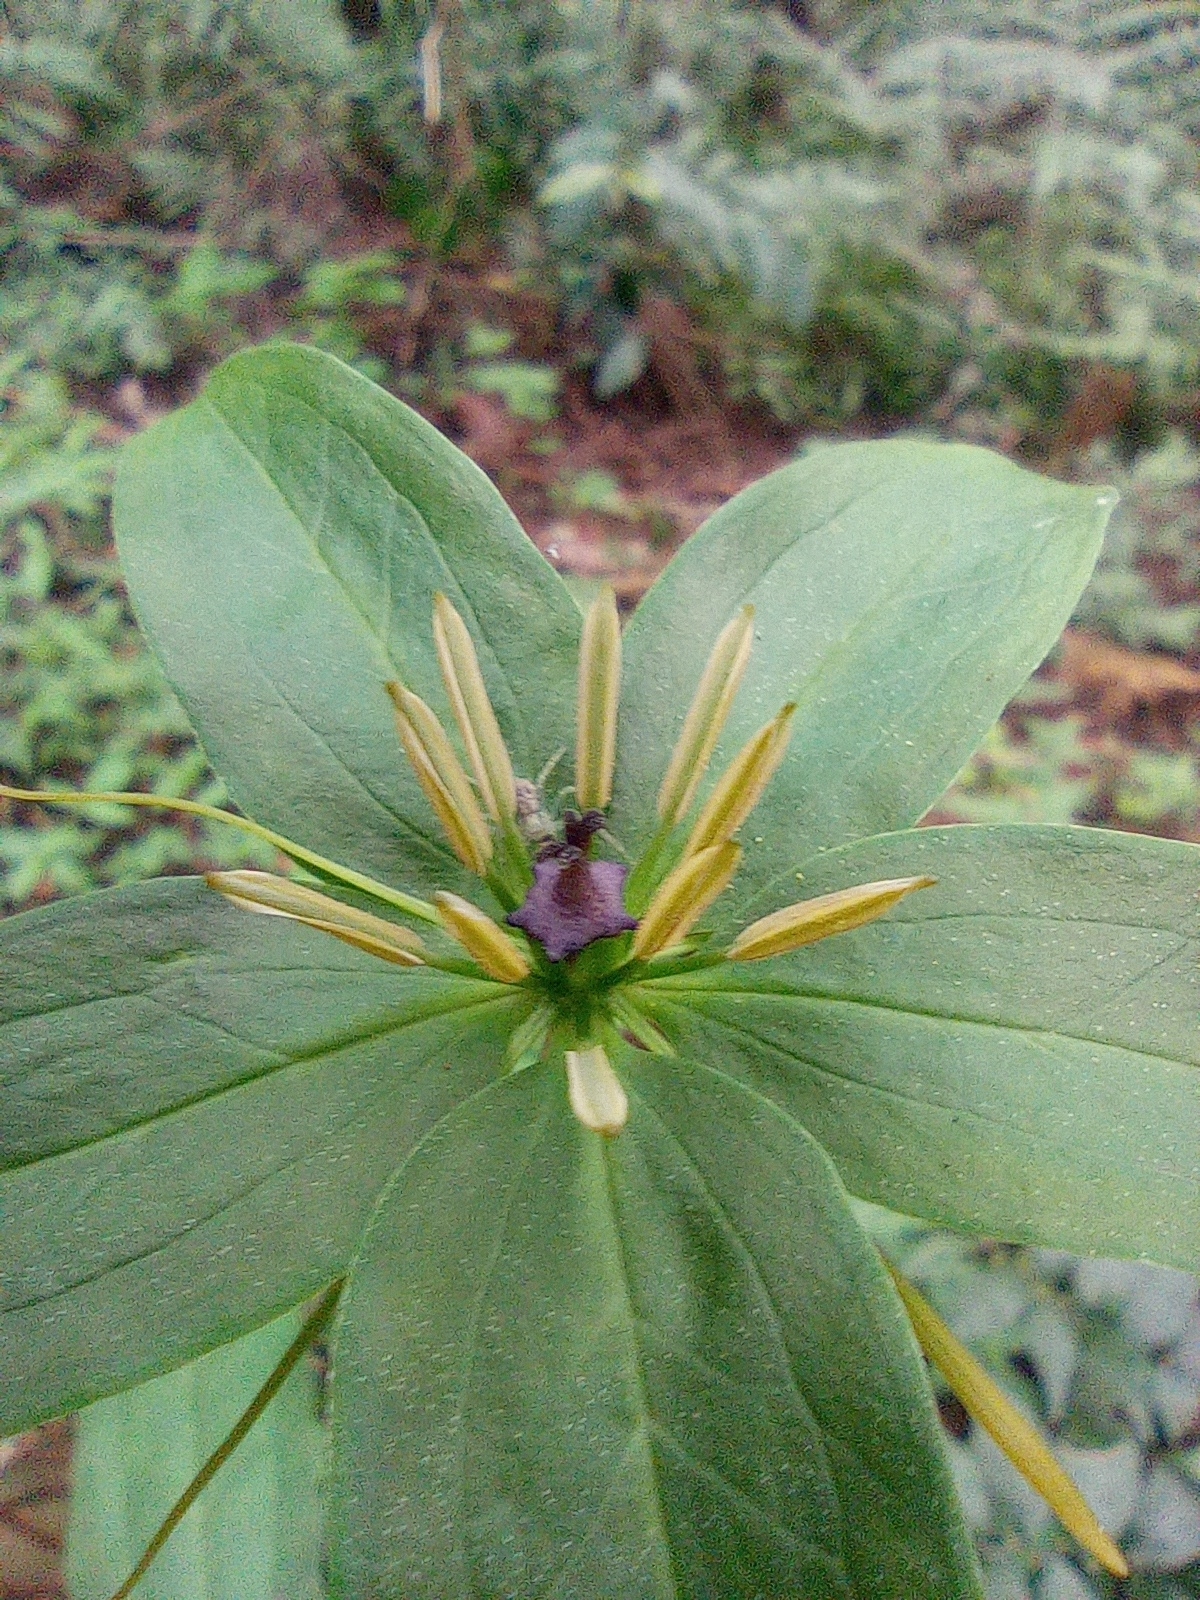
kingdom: Plantae
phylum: Tracheophyta
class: Liliopsida
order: Liliales
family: Melanthiaceae
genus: Paris
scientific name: Paris polyphylla
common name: Love apple
